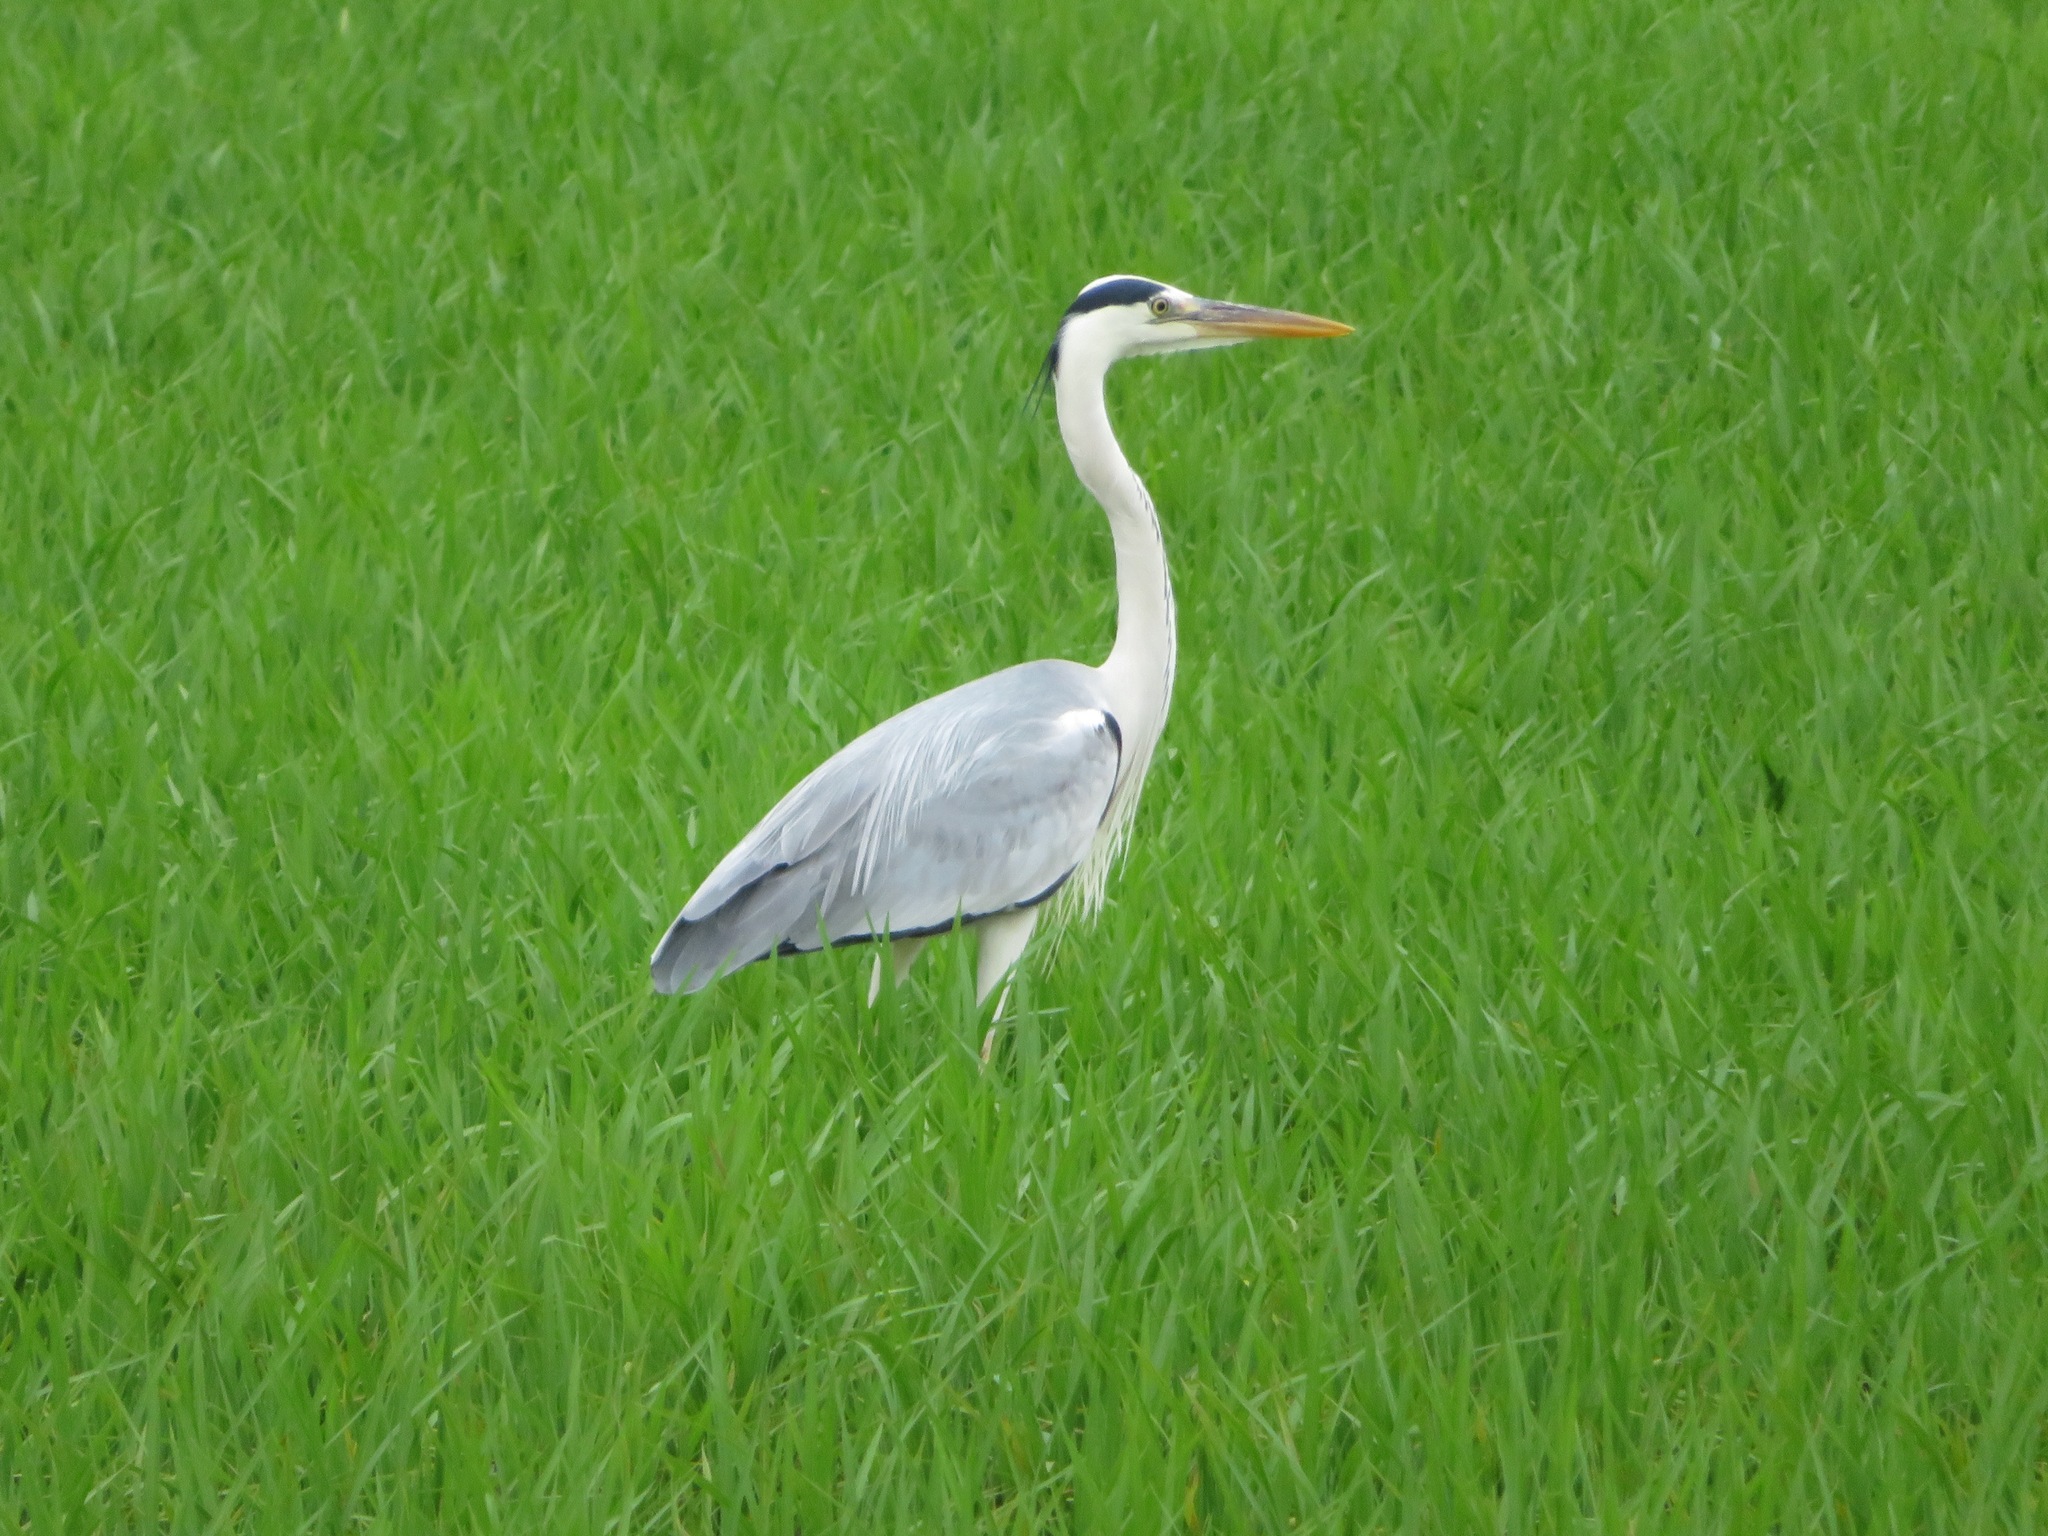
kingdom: Animalia
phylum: Chordata
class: Aves
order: Pelecaniformes
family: Ardeidae
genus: Ardea
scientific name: Ardea cinerea
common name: Grey heron
